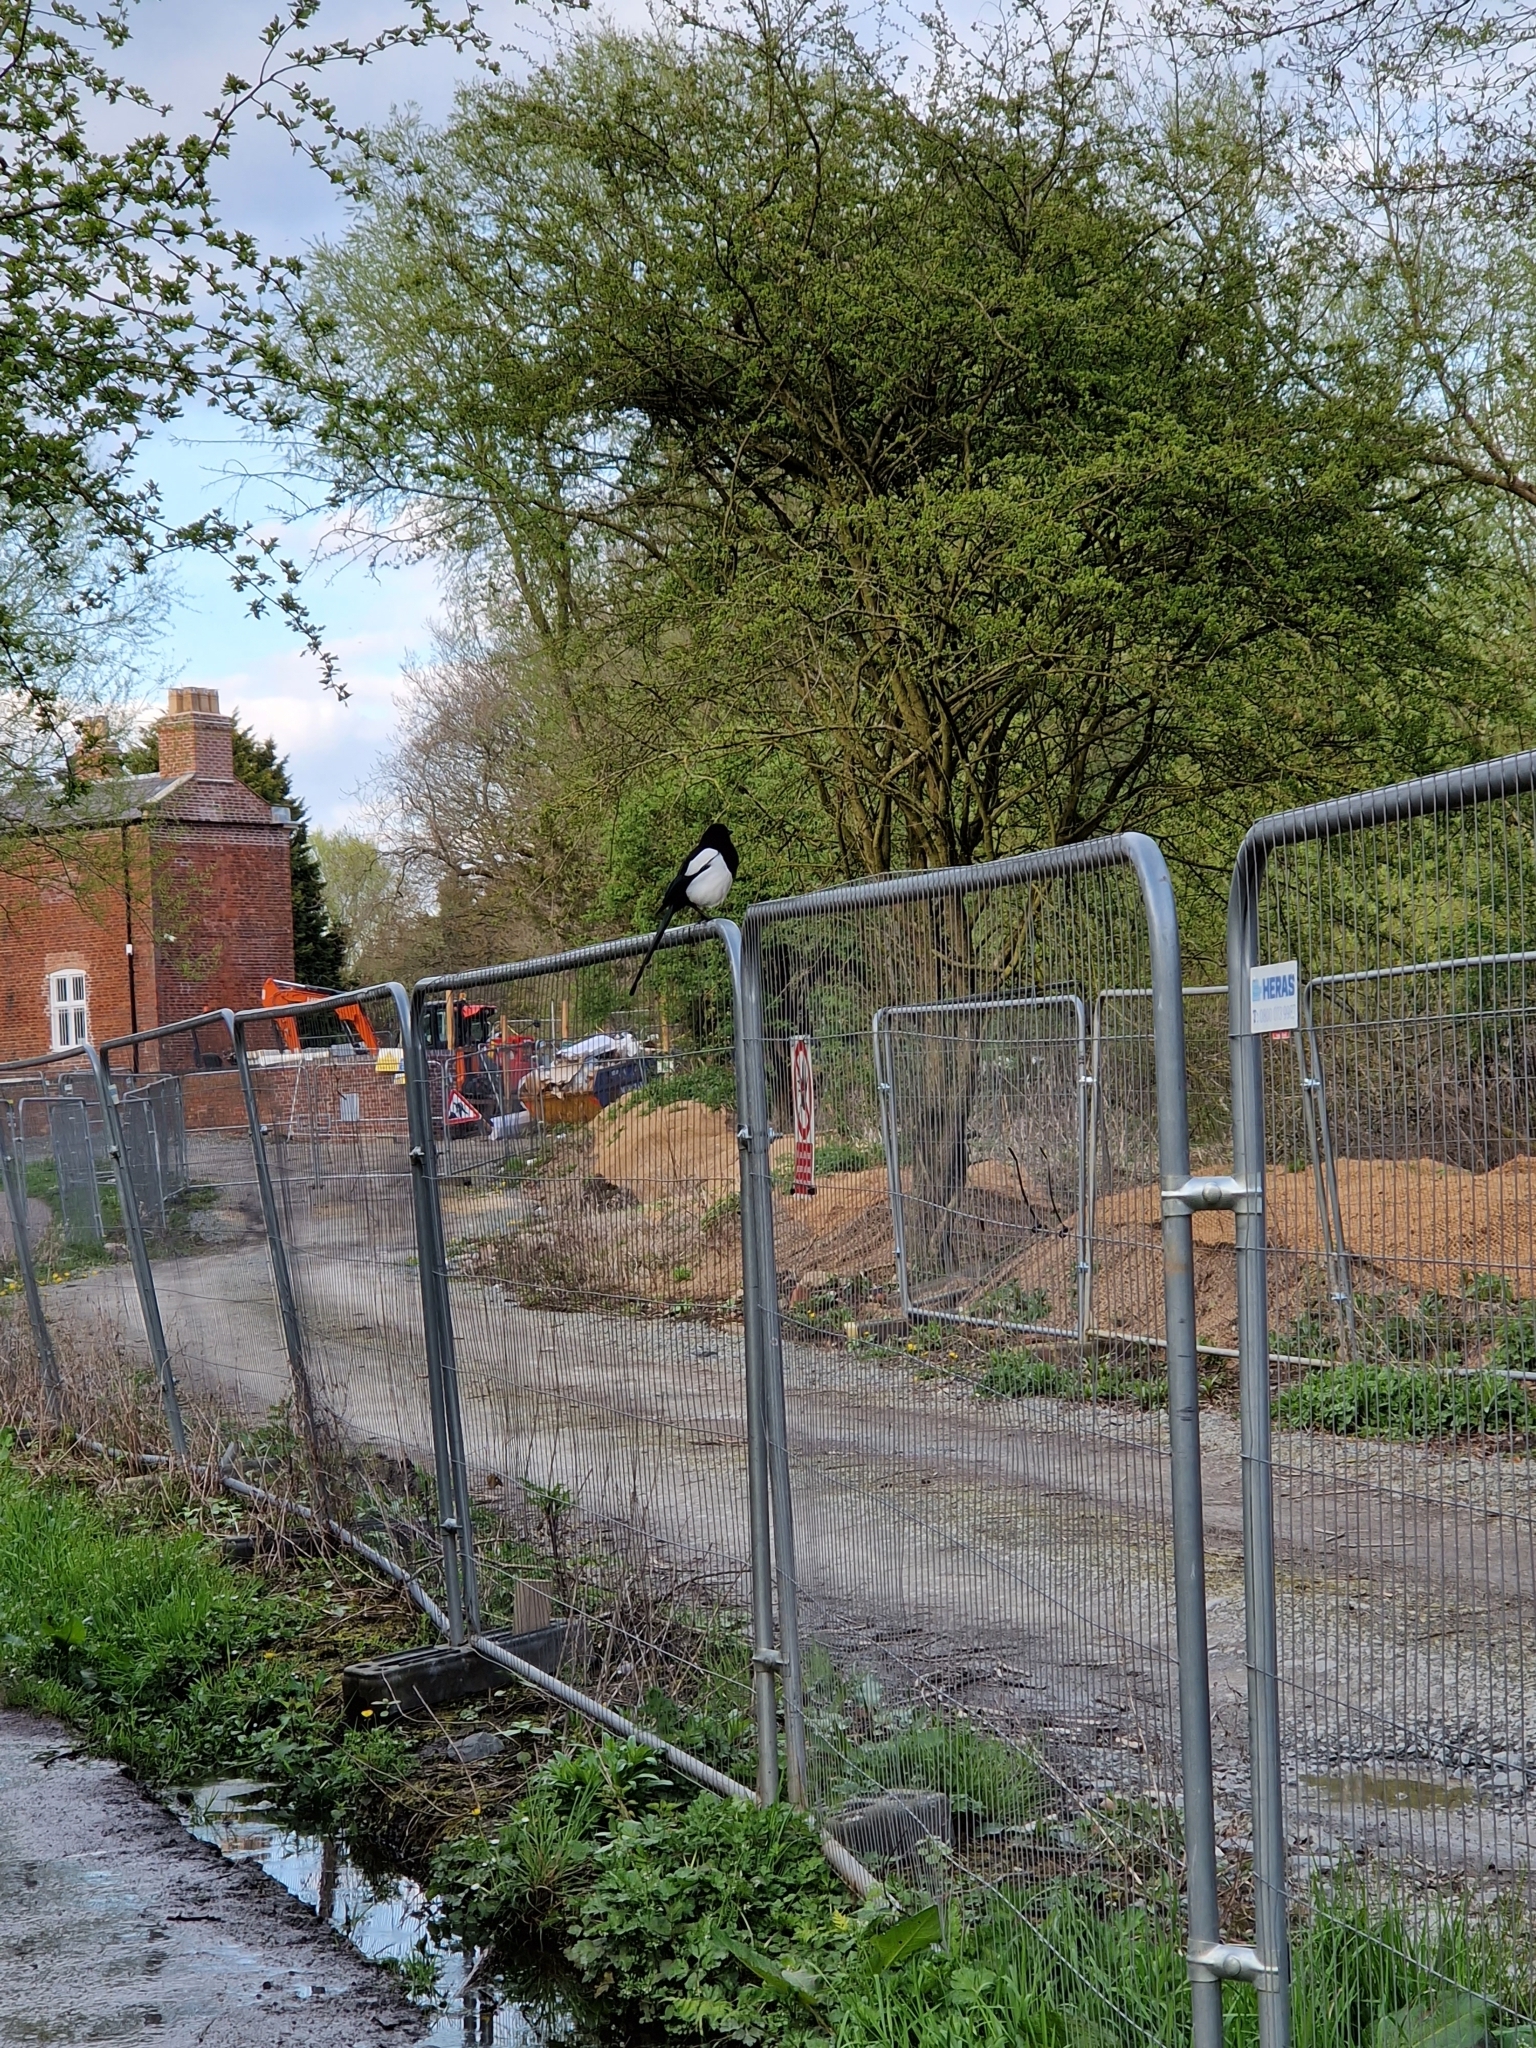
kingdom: Animalia
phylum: Chordata
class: Aves
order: Passeriformes
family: Corvidae
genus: Pica
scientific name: Pica pica
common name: Eurasian magpie
